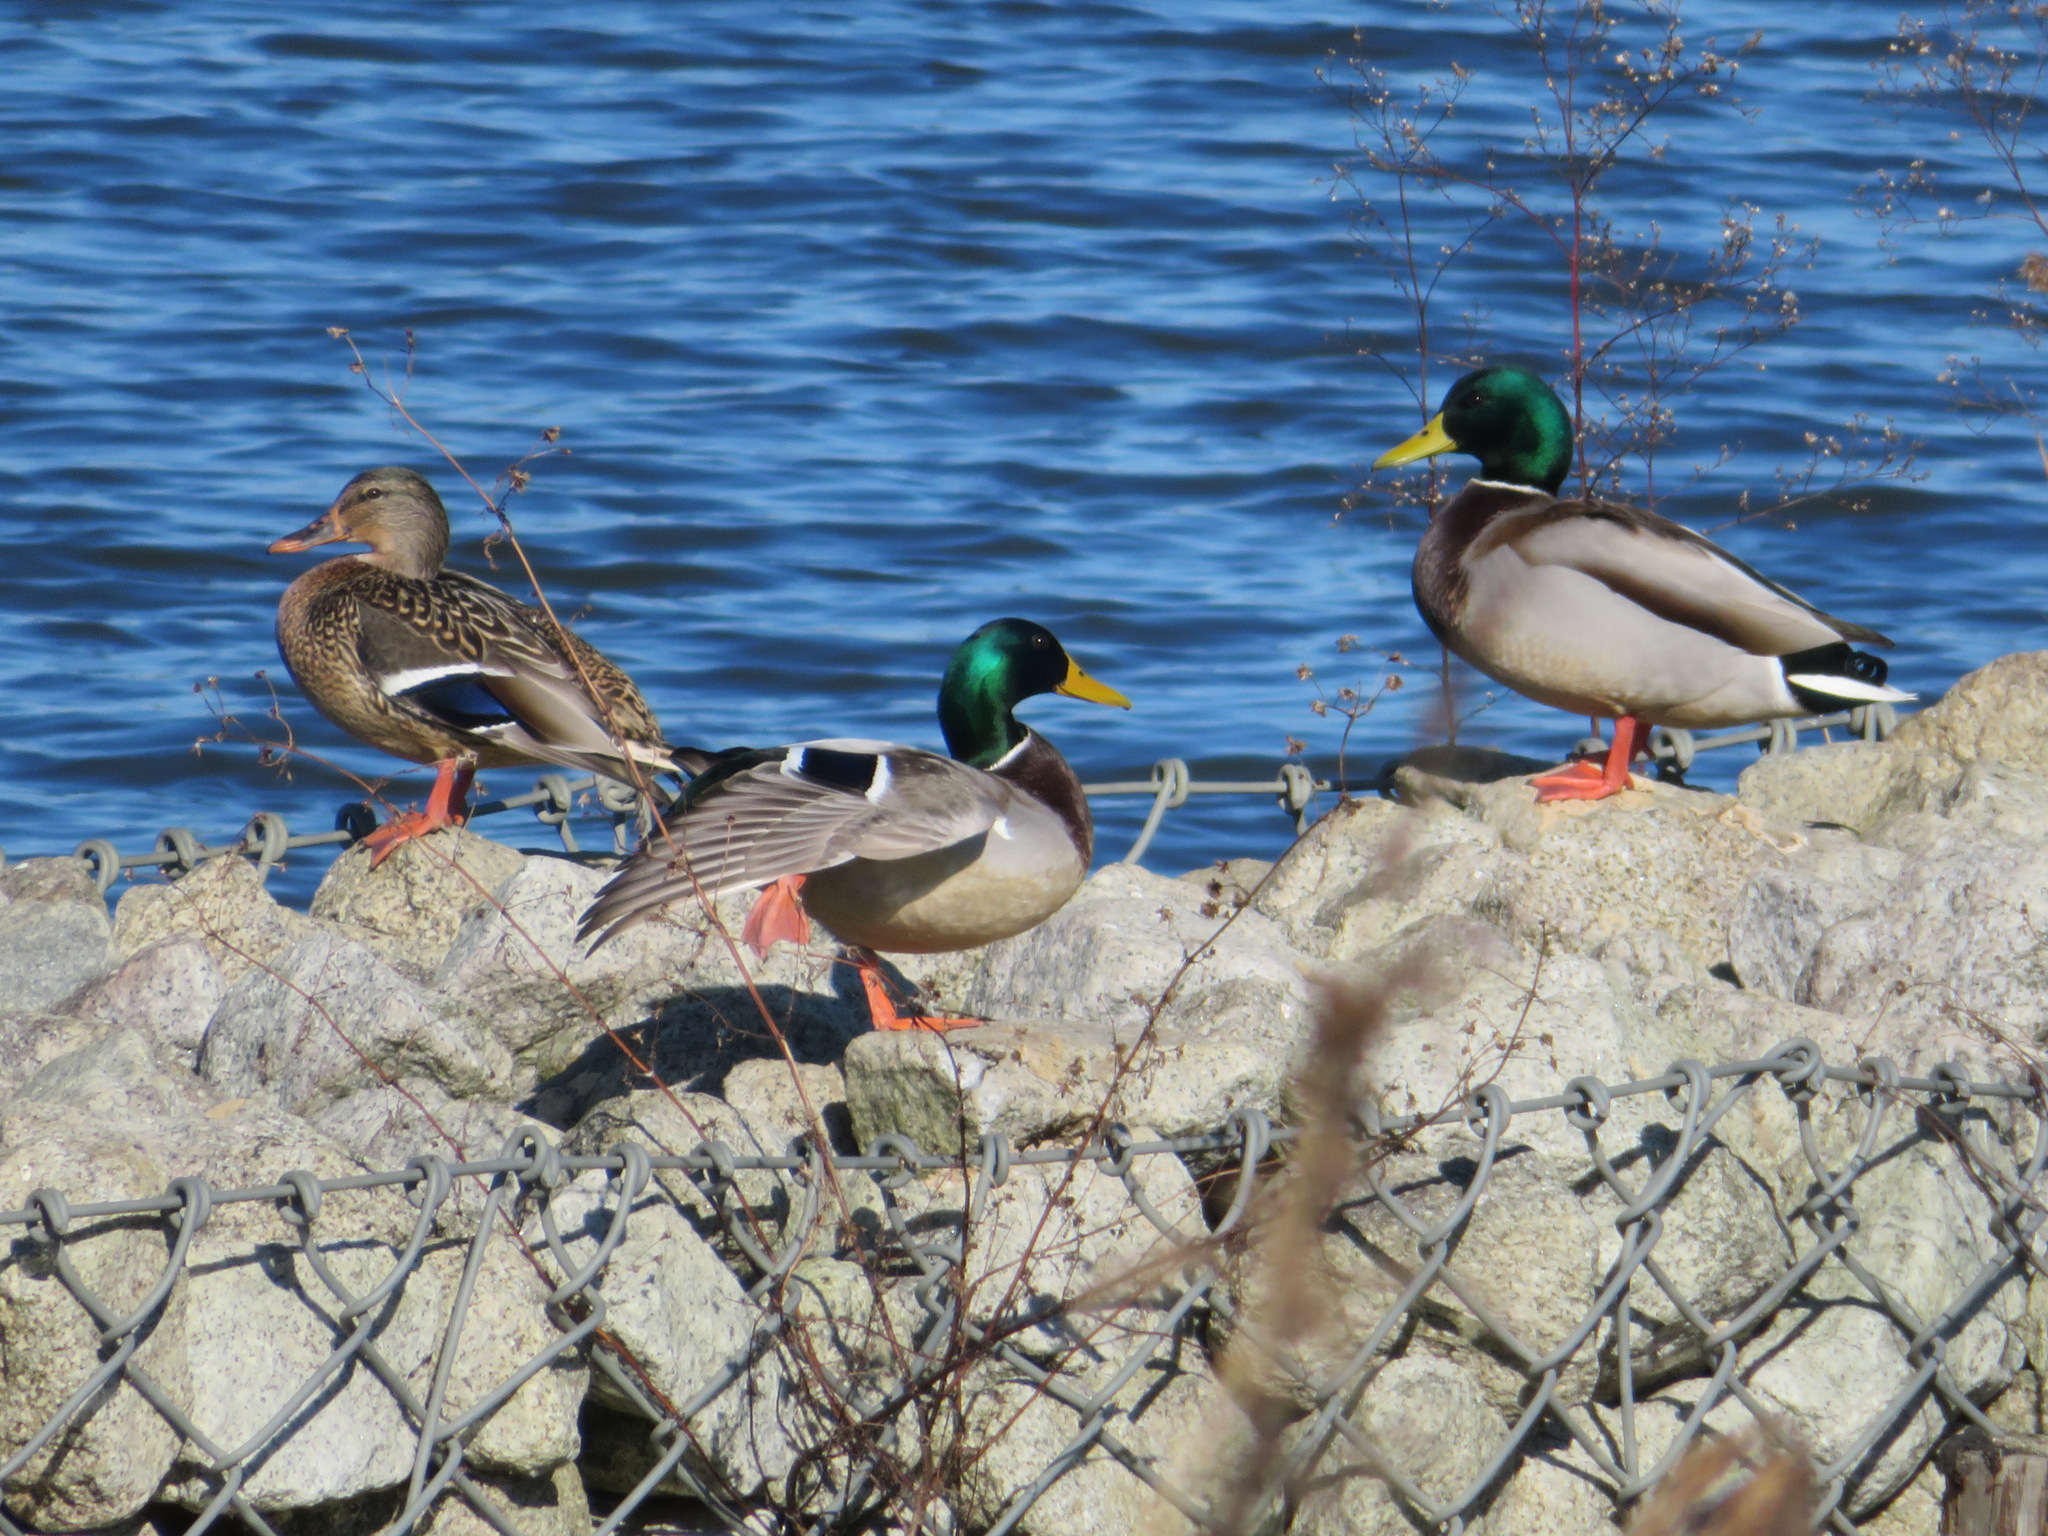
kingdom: Animalia
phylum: Chordata
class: Aves
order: Anseriformes
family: Anatidae
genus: Anas
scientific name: Anas platyrhynchos
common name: Mallard
